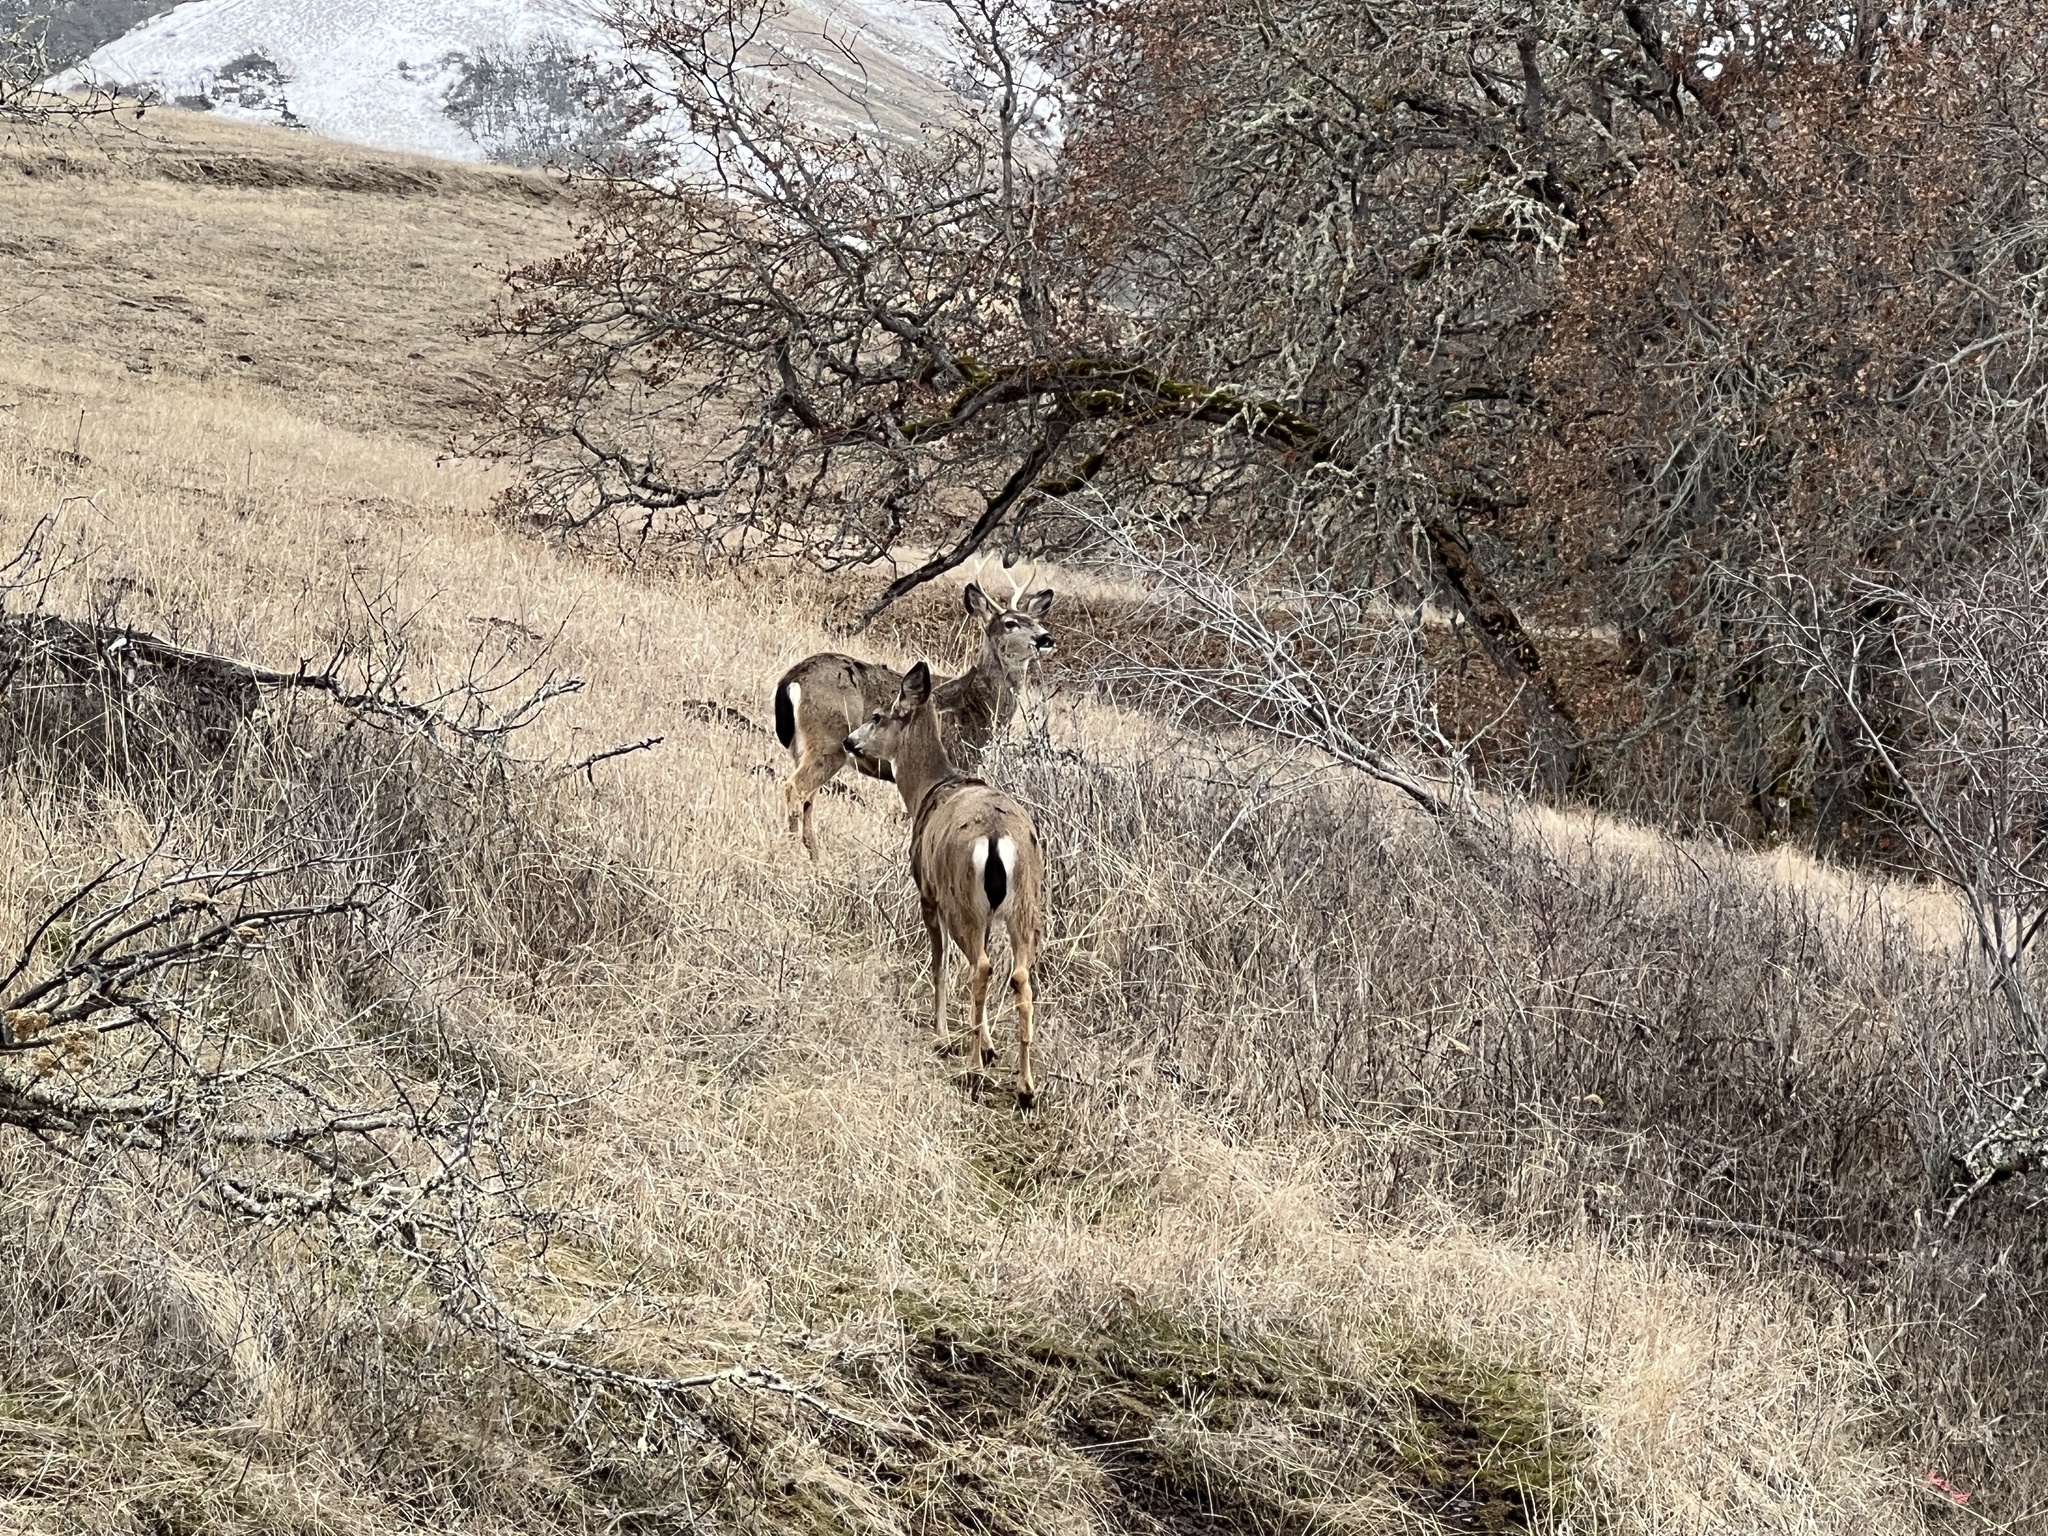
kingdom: Animalia
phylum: Chordata
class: Mammalia
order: Artiodactyla
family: Cervidae
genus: Odocoileus
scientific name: Odocoileus hemionus
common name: Mule deer
